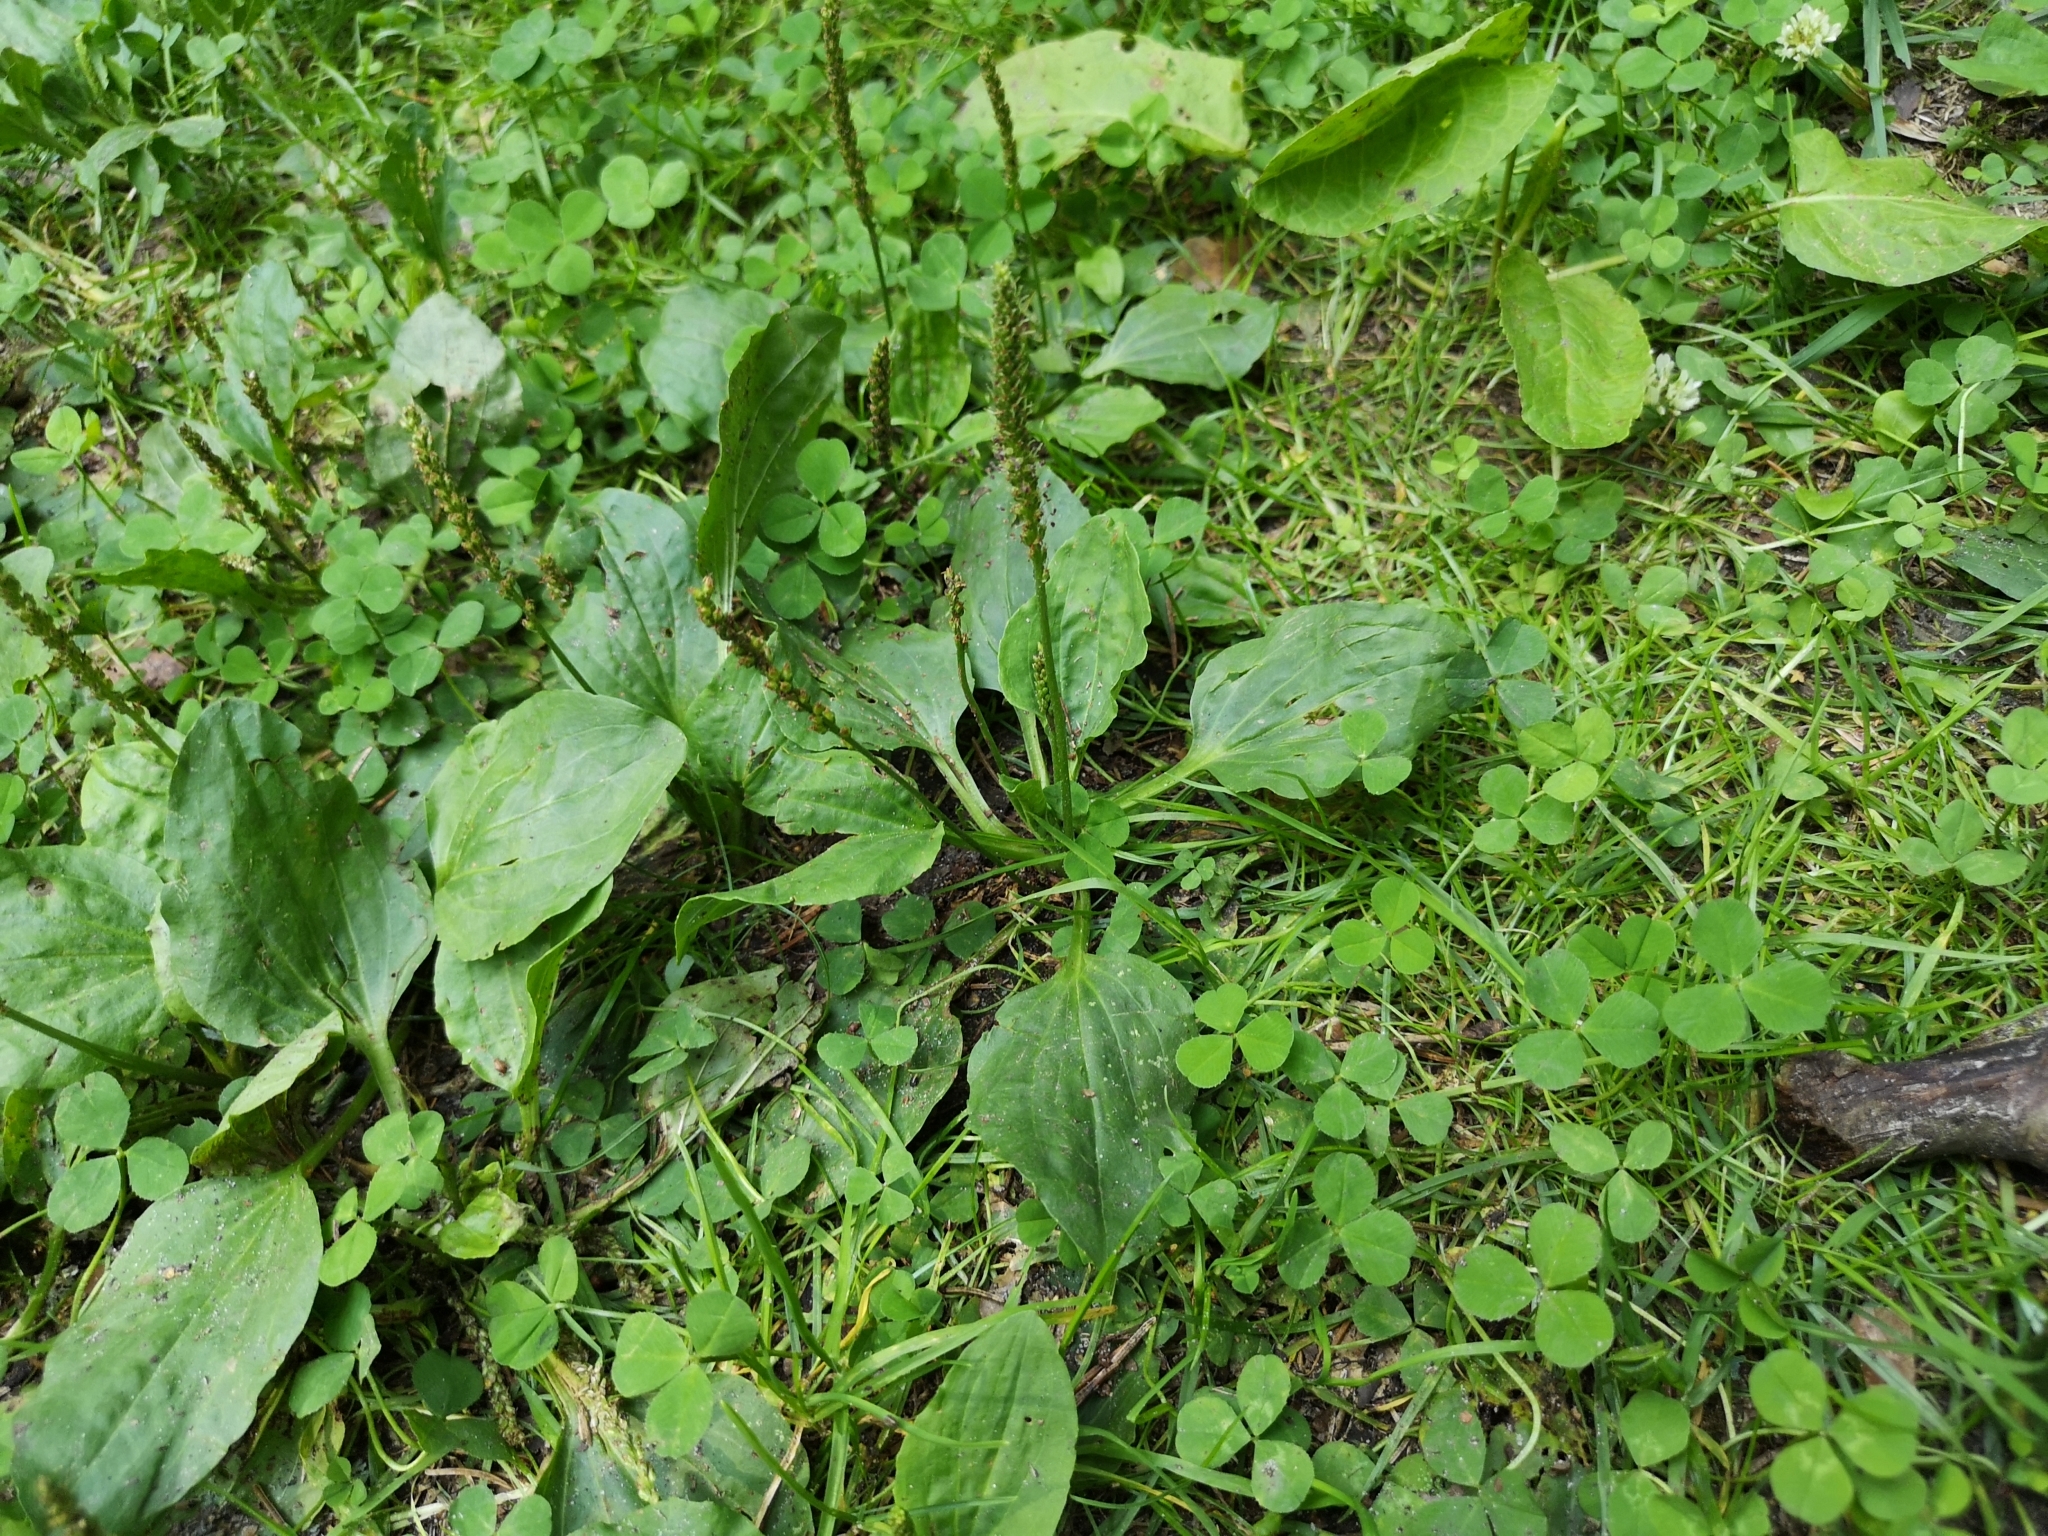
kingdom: Plantae
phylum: Tracheophyta
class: Magnoliopsida
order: Lamiales
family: Plantaginaceae
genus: Plantago
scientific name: Plantago major
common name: Common plantain
